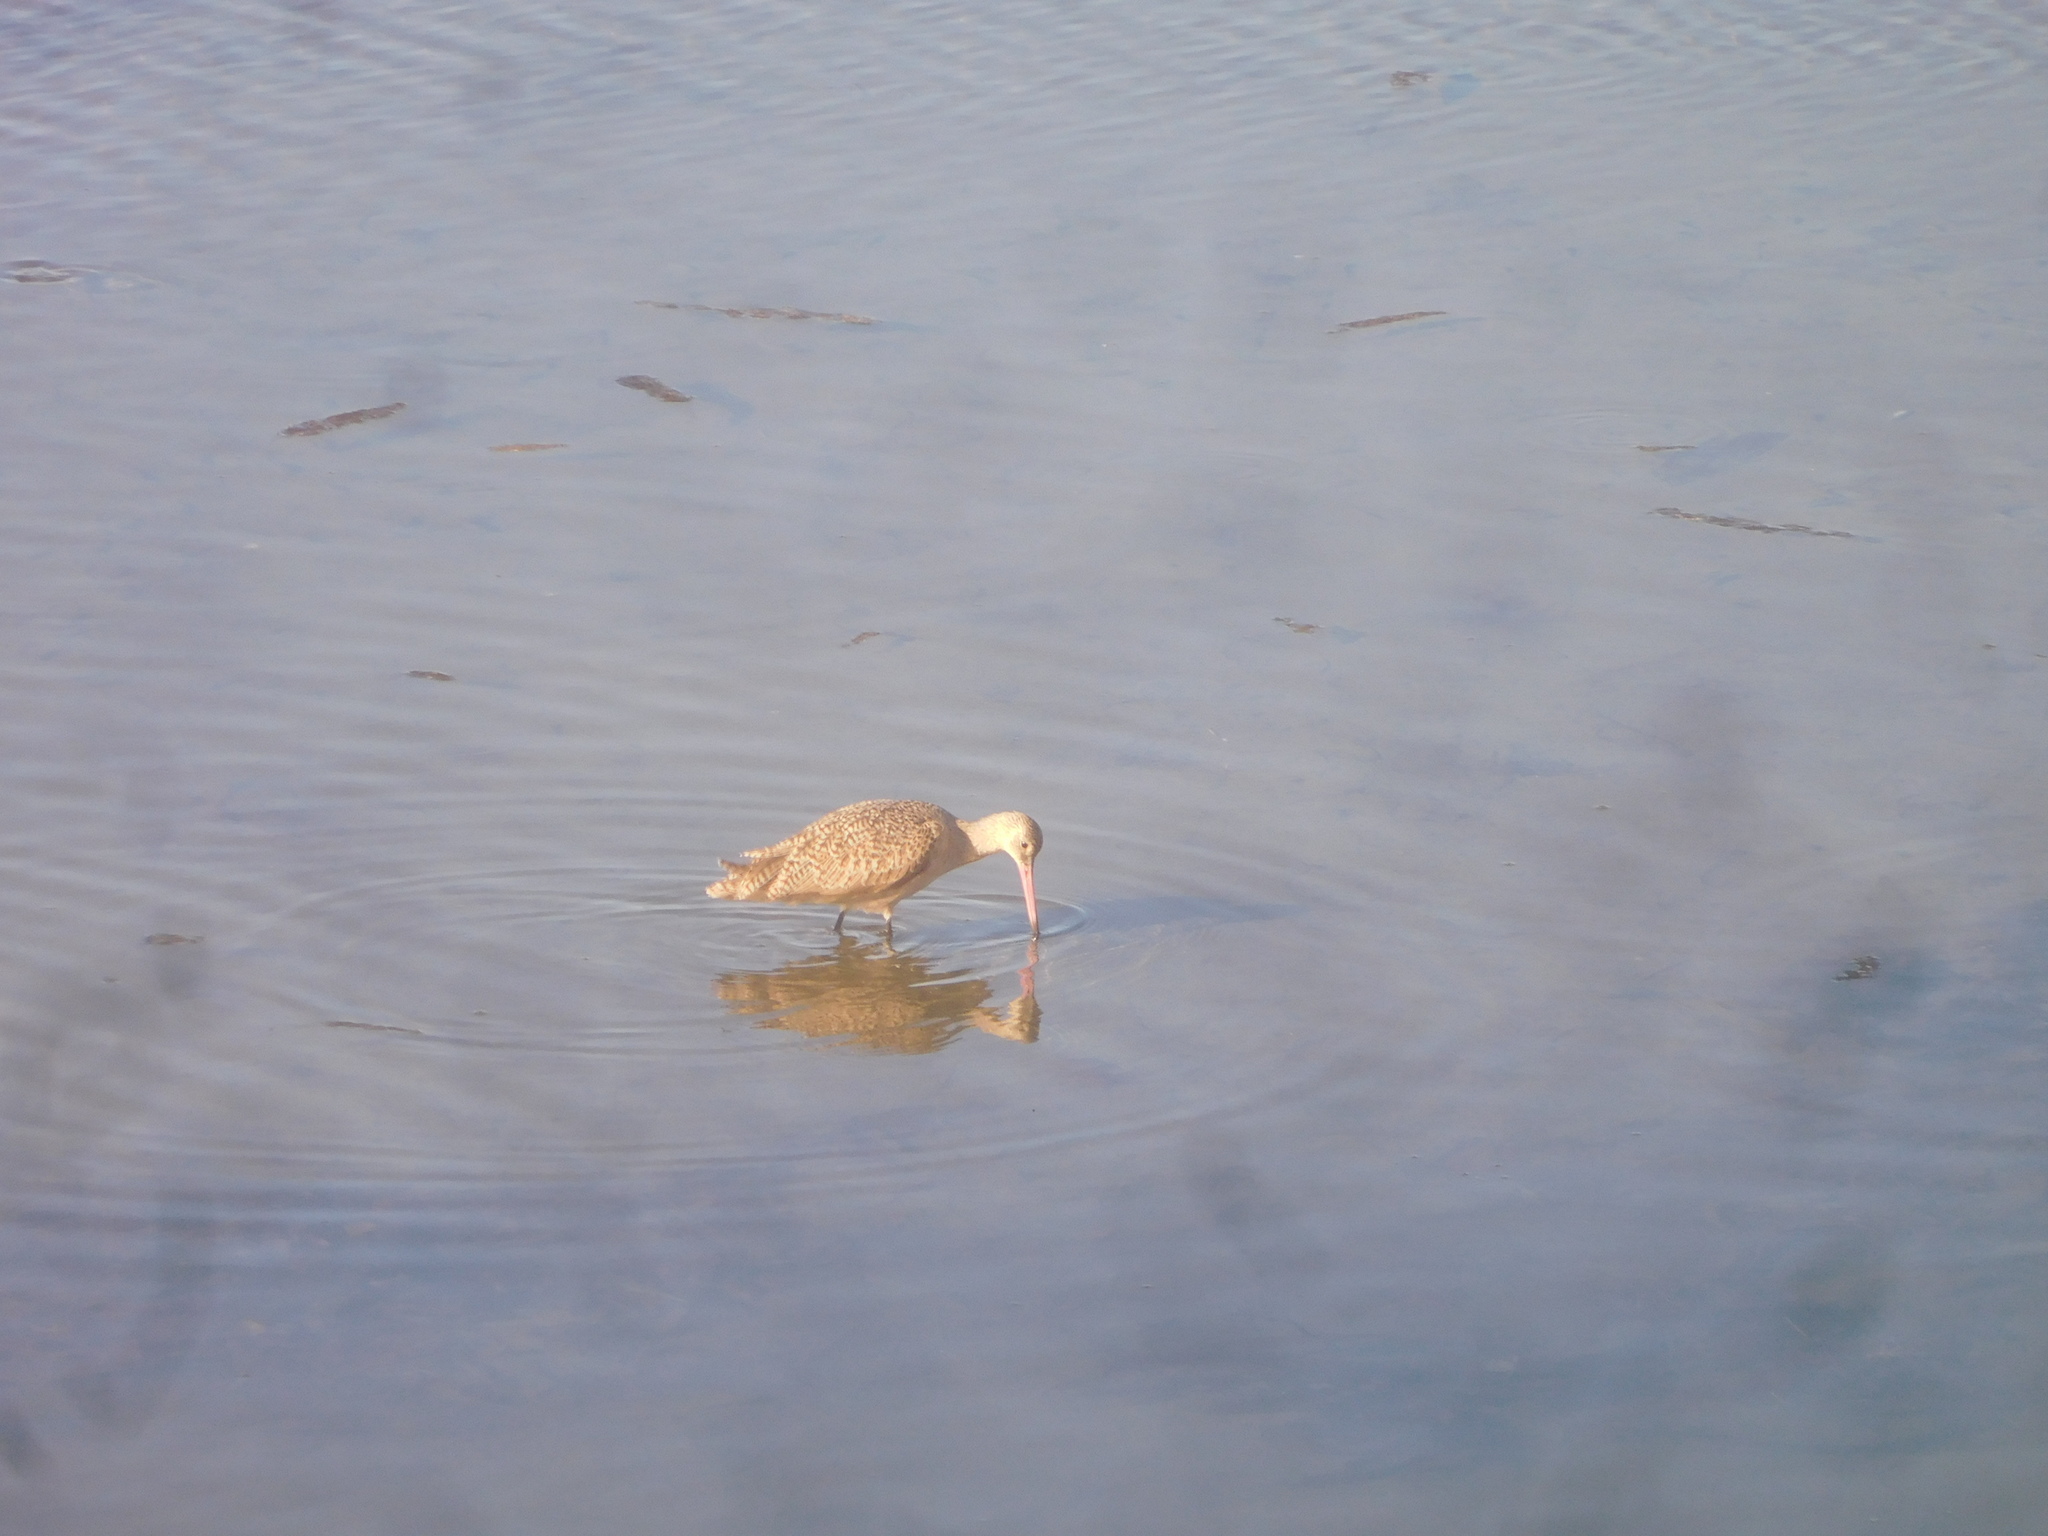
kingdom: Animalia
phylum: Chordata
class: Aves
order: Charadriiformes
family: Scolopacidae
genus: Limosa
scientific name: Limosa fedoa
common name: Marbled godwit
